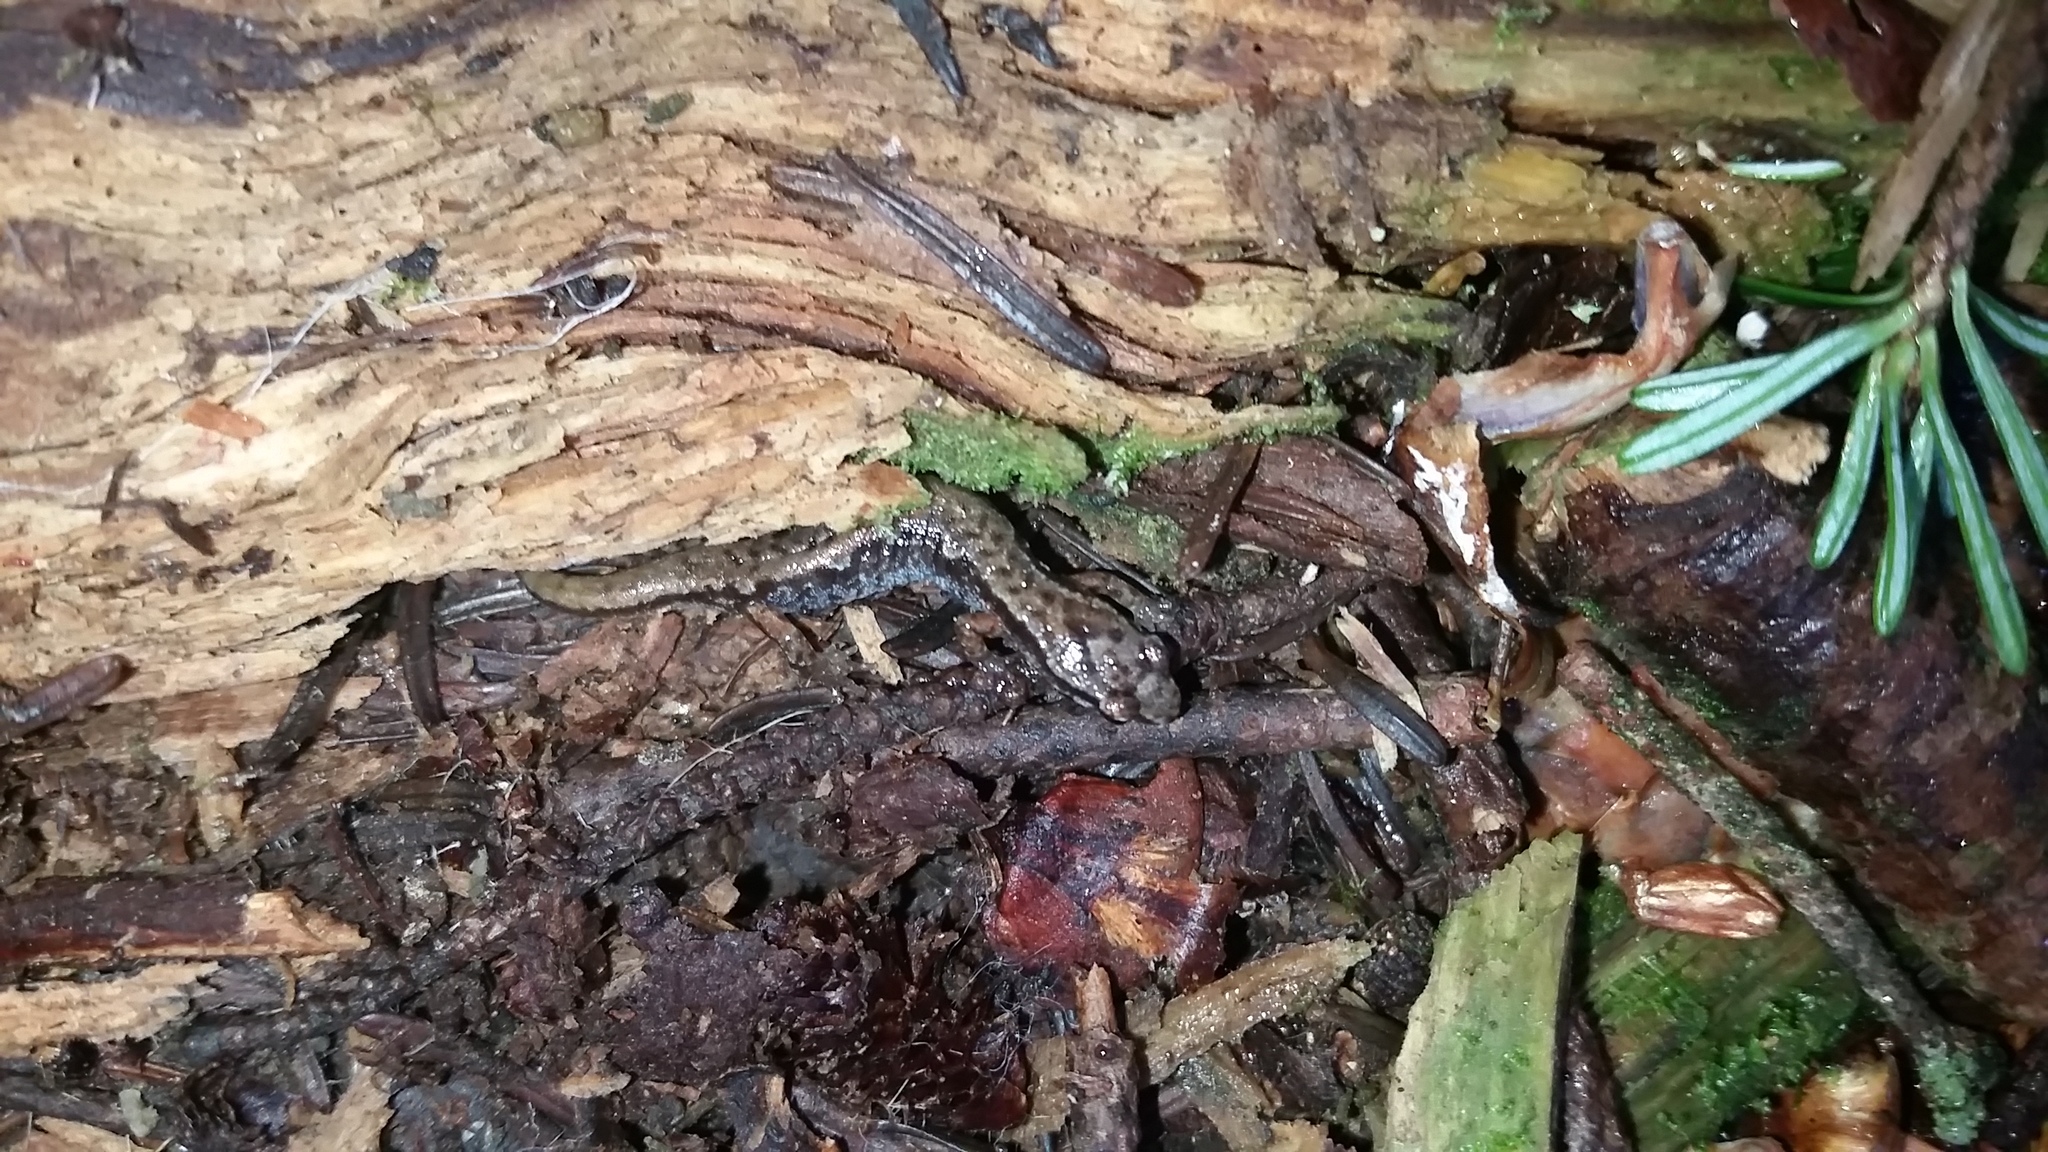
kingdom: Animalia
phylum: Chordata
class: Amphibia
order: Caudata
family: Plethodontidae
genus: Desmognathus
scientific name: Desmognathus wrighti
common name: Pygmy salamander
